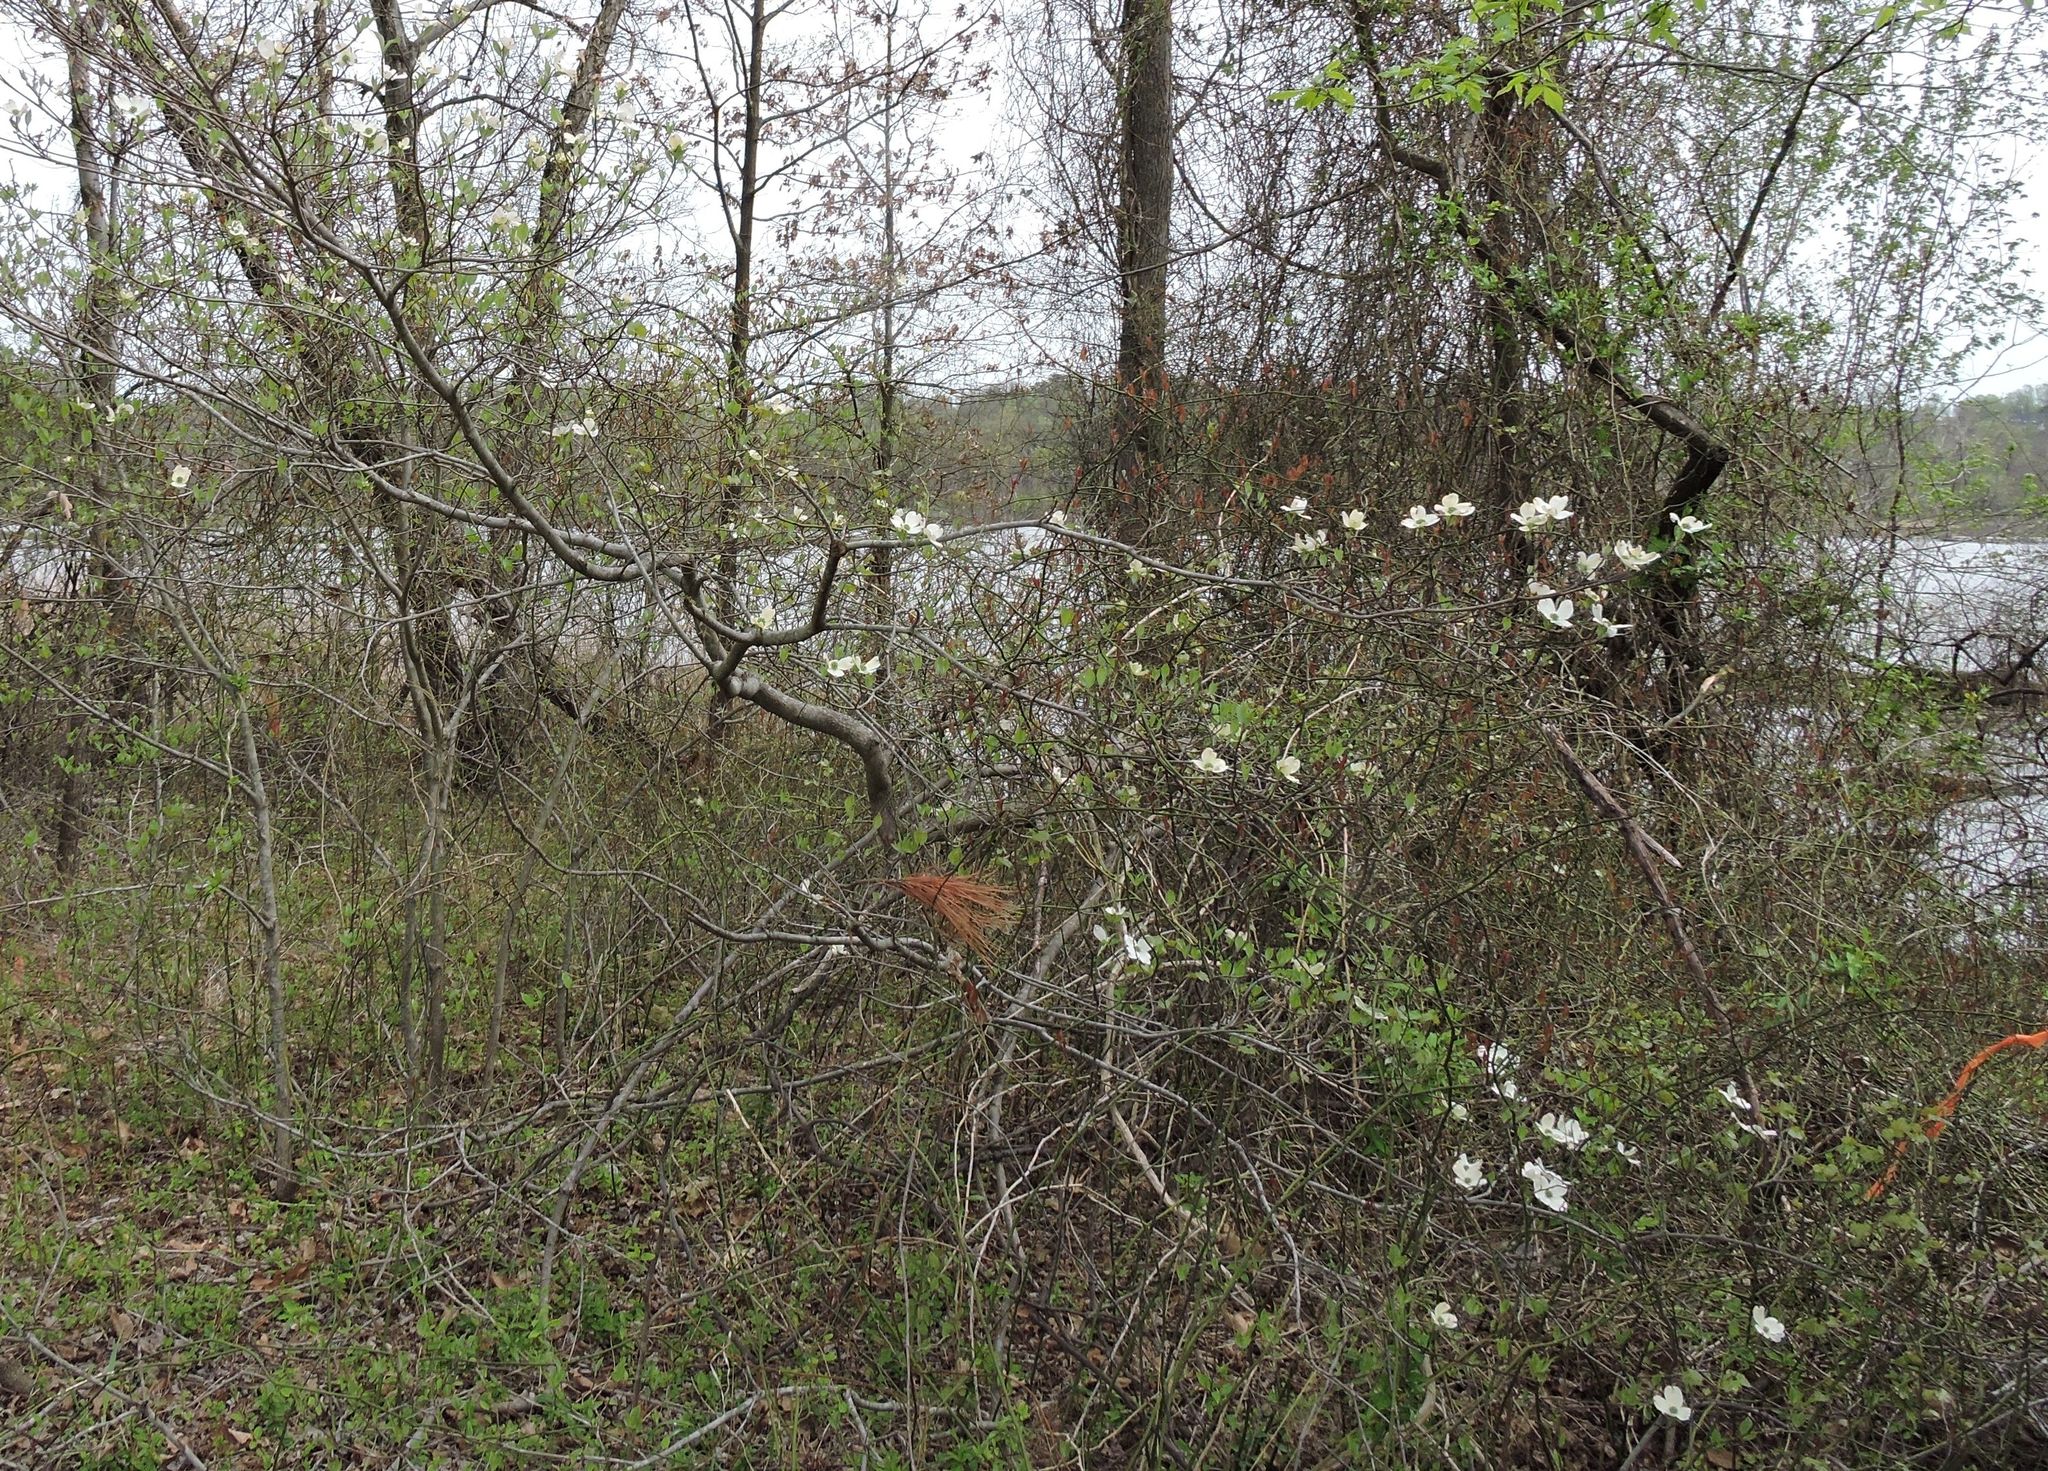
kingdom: Plantae
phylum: Tracheophyta
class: Magnoliopsida
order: Cornales
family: Cornaceae
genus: Cornus
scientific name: Cornus florida
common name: Flowering dogwood
